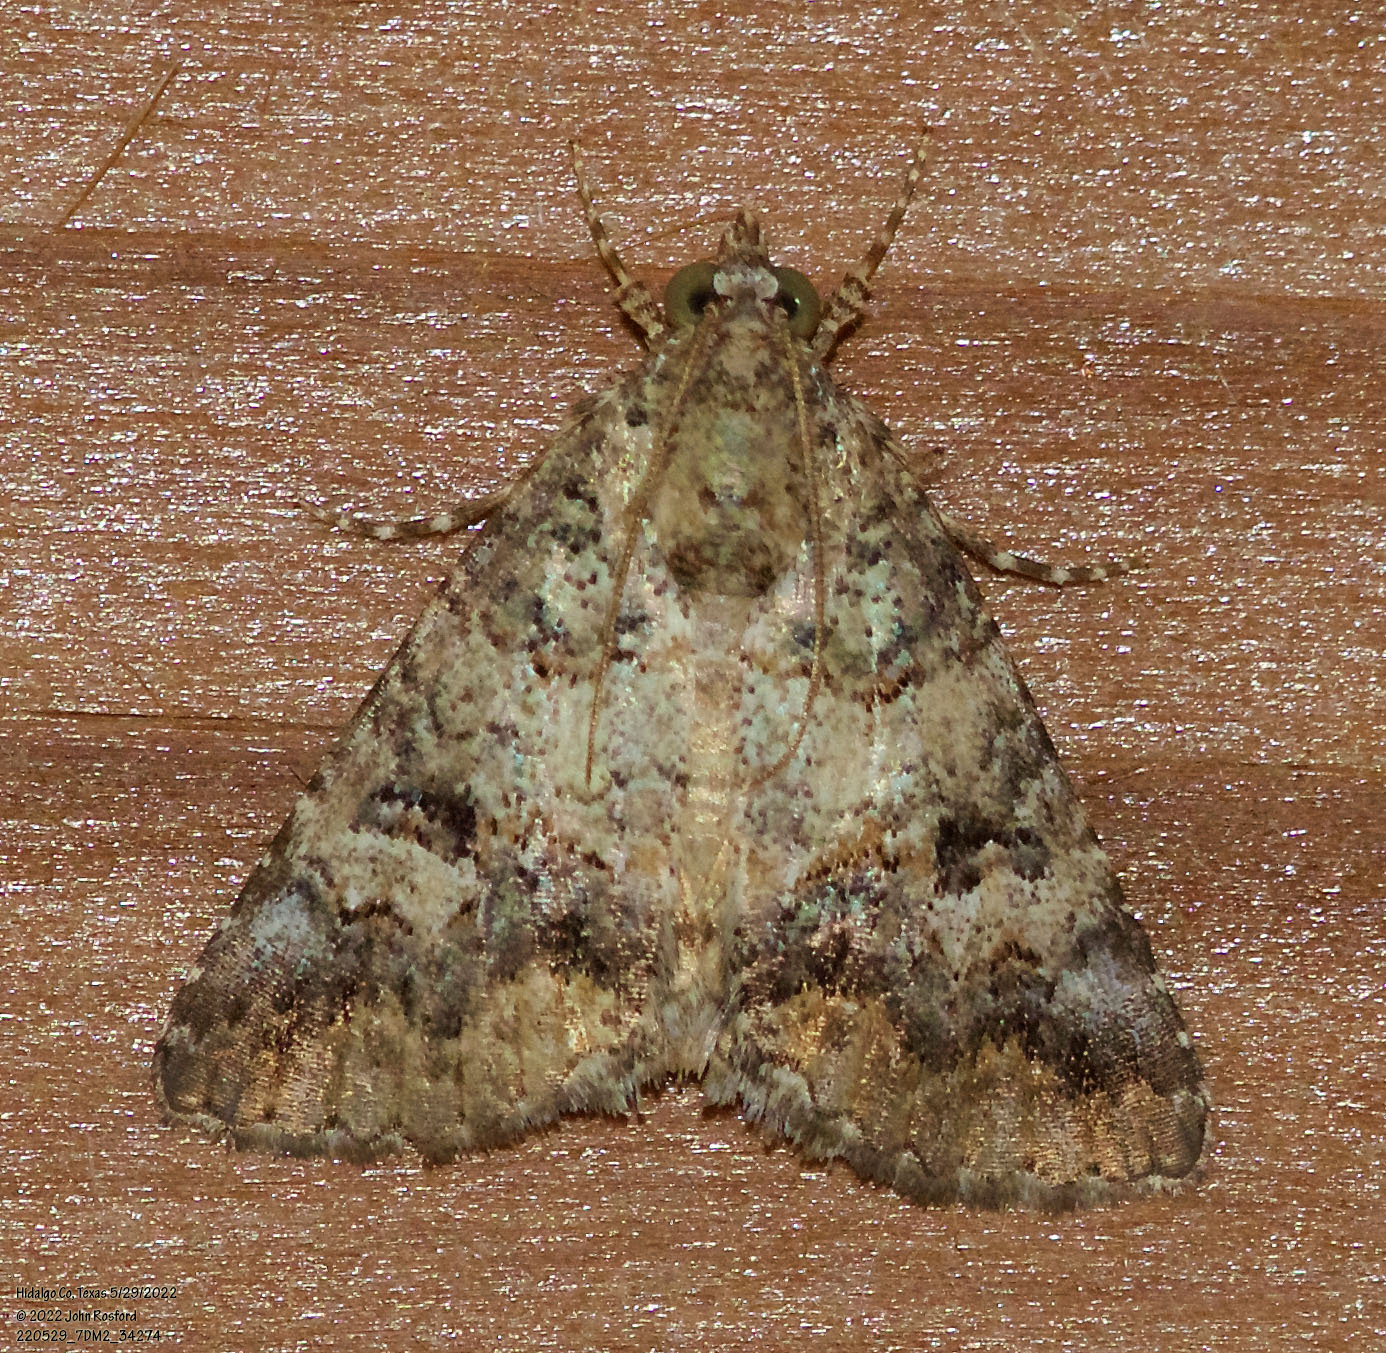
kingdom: Animalia
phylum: Arthropoda
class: Insecta
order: Lepidoptera
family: Erebidae
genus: Eubolina
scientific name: Eubolina impartialis
